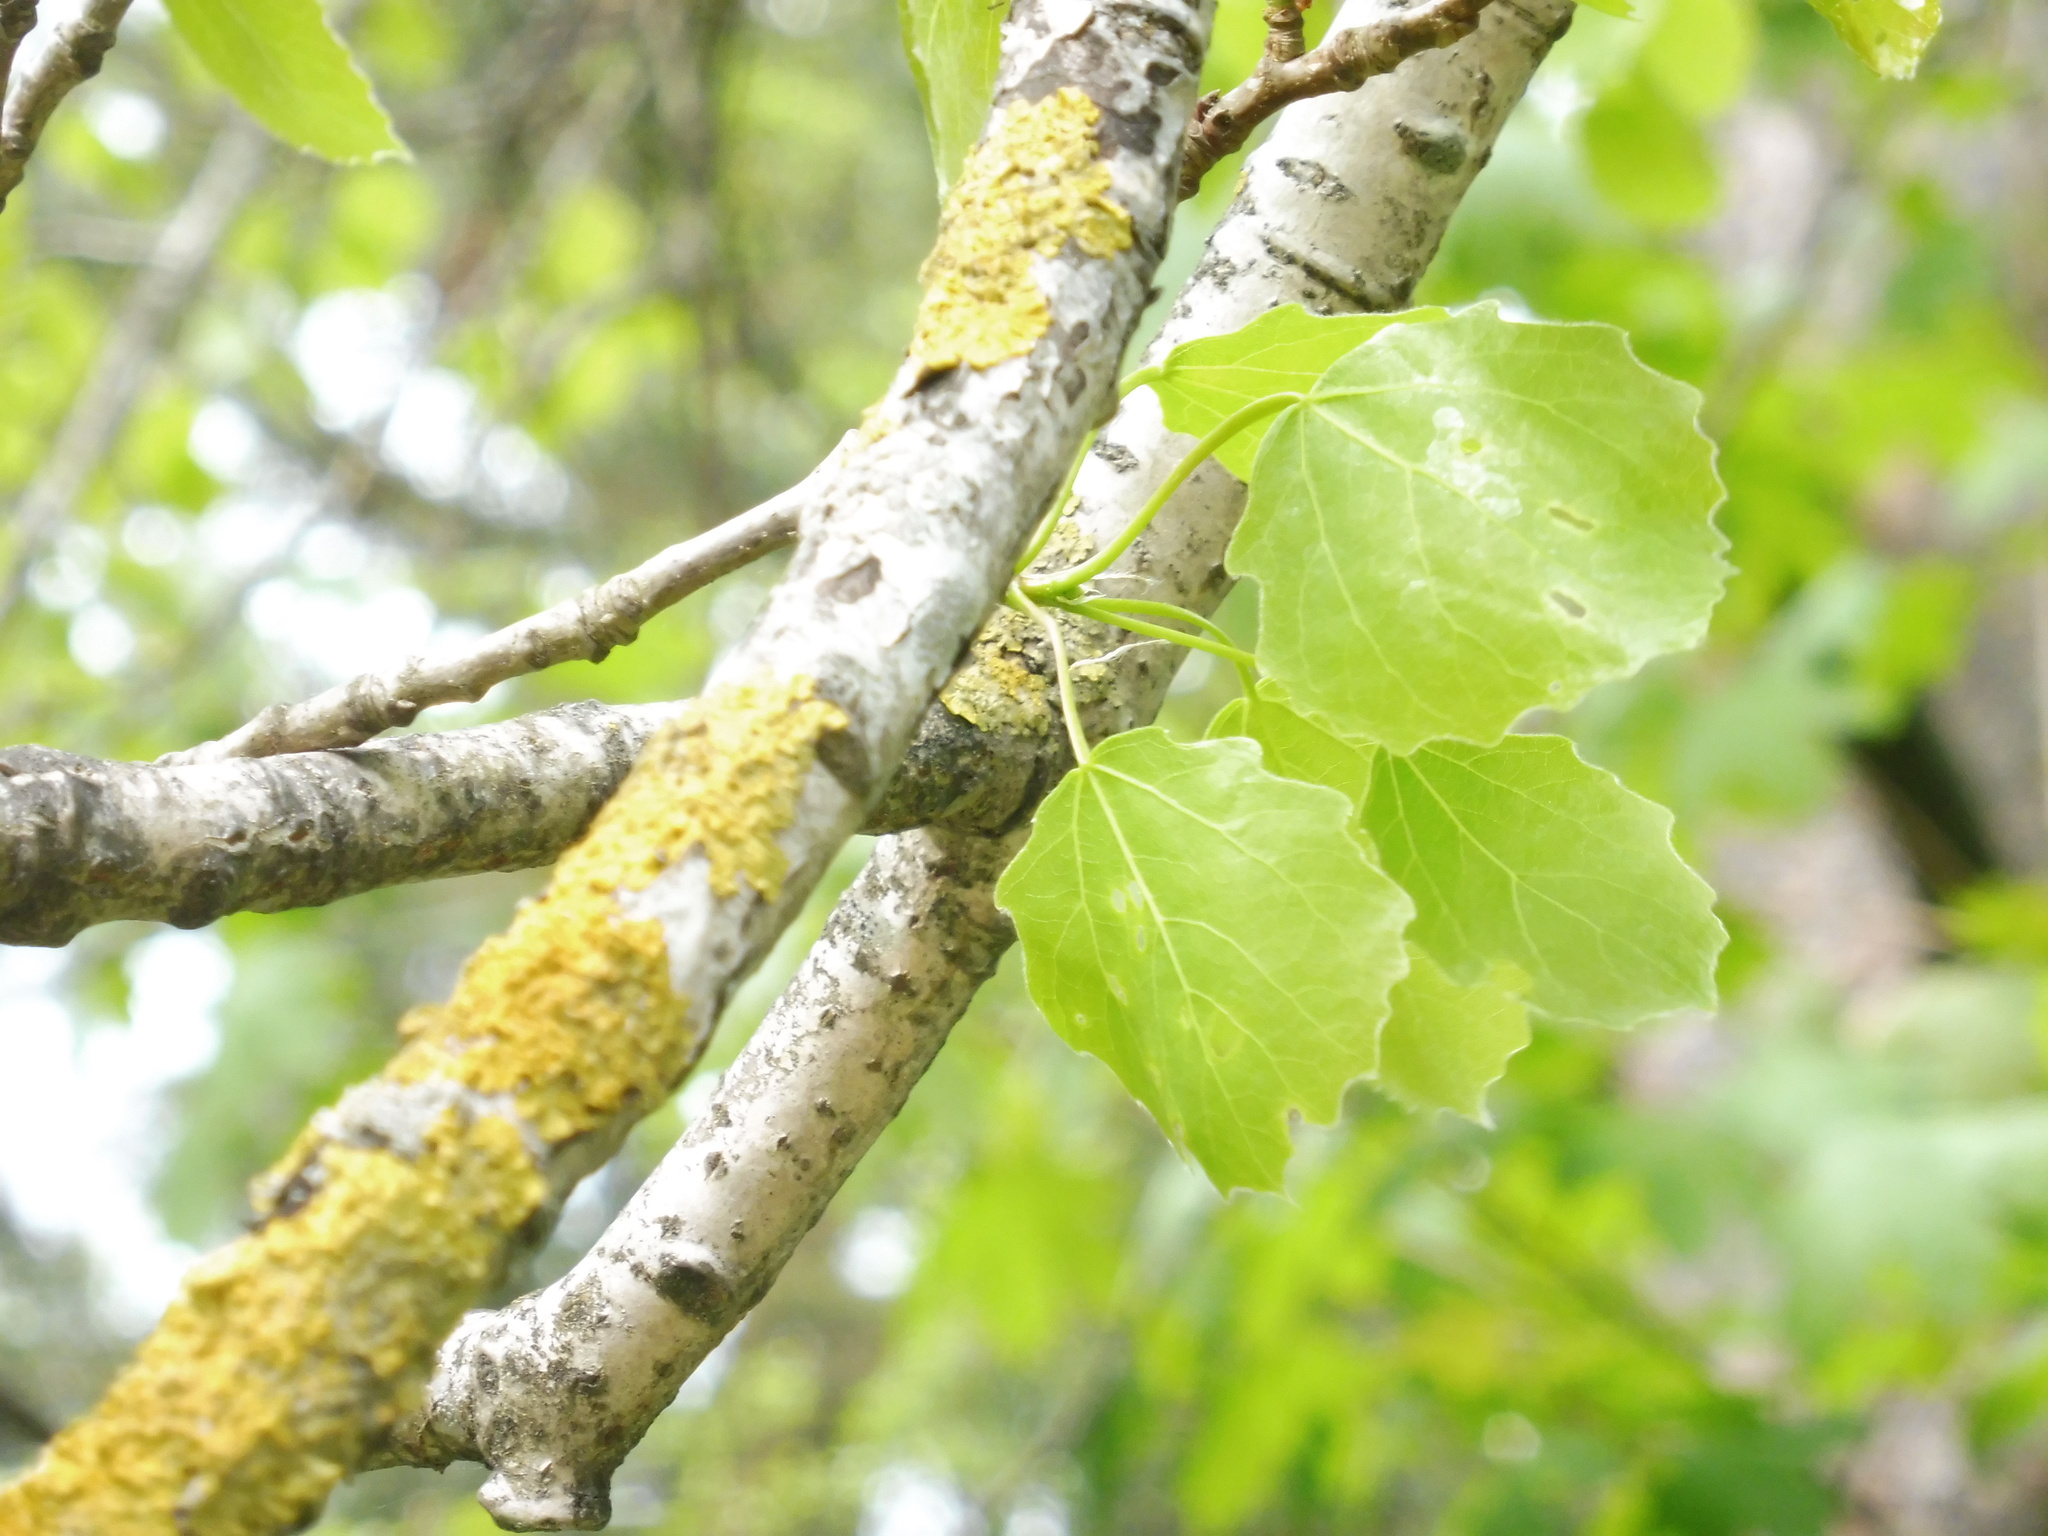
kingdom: Plantae
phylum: Tracheophyta
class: Magnoliopsida
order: Malpighiales
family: Salicaceae
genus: Populus
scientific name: Populus tremula
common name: European aspen
